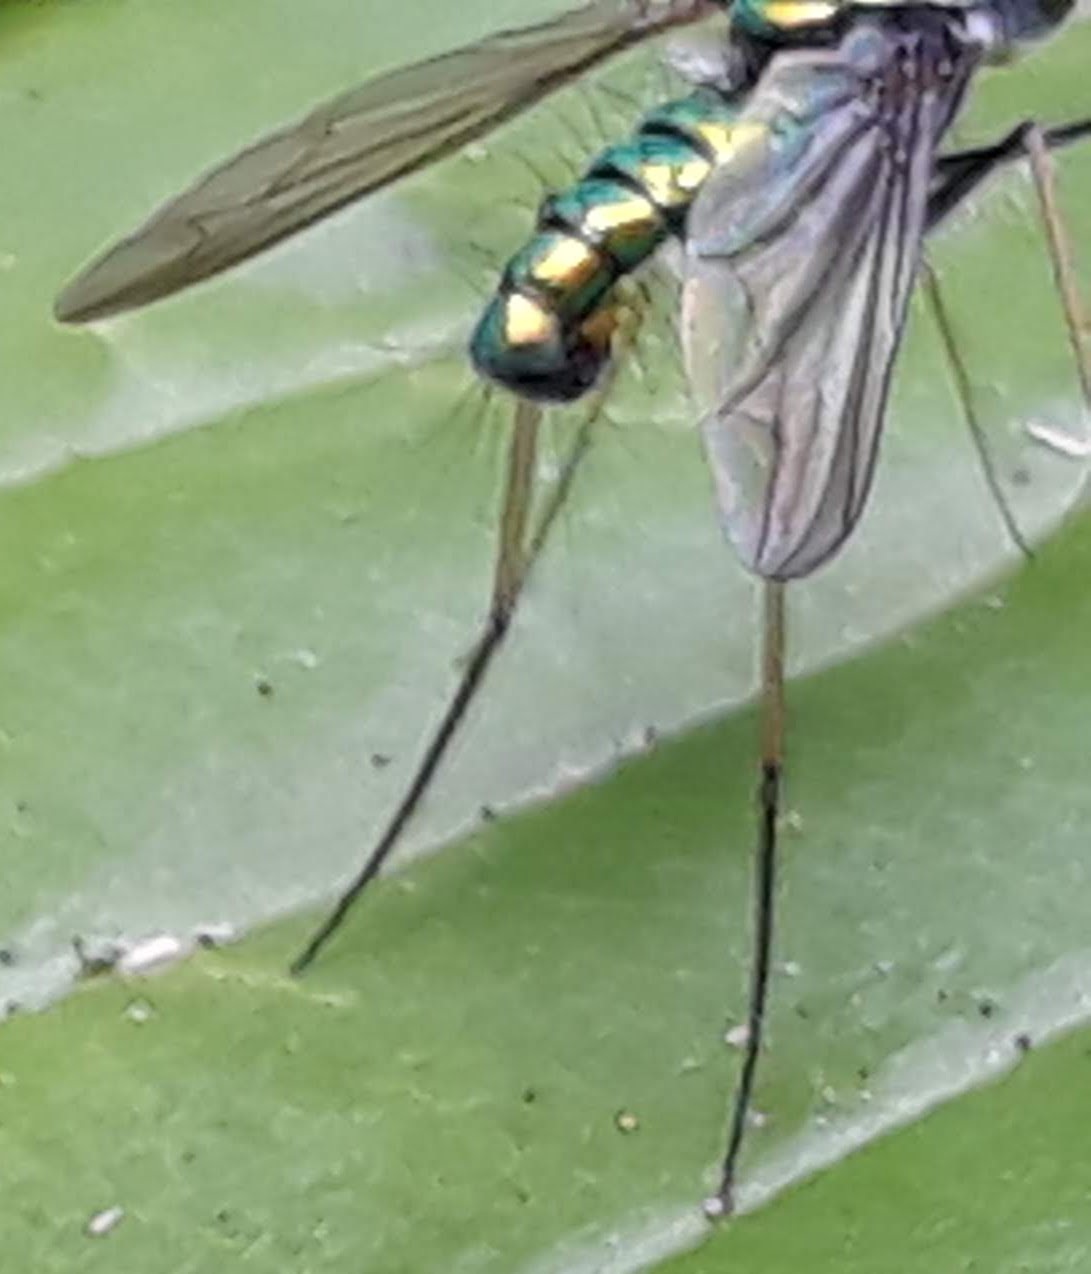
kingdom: Animalia
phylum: Arthropoda
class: Insecta
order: Diptera
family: Dolichopodidae
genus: Condylostylus
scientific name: Condylostylus comatus
